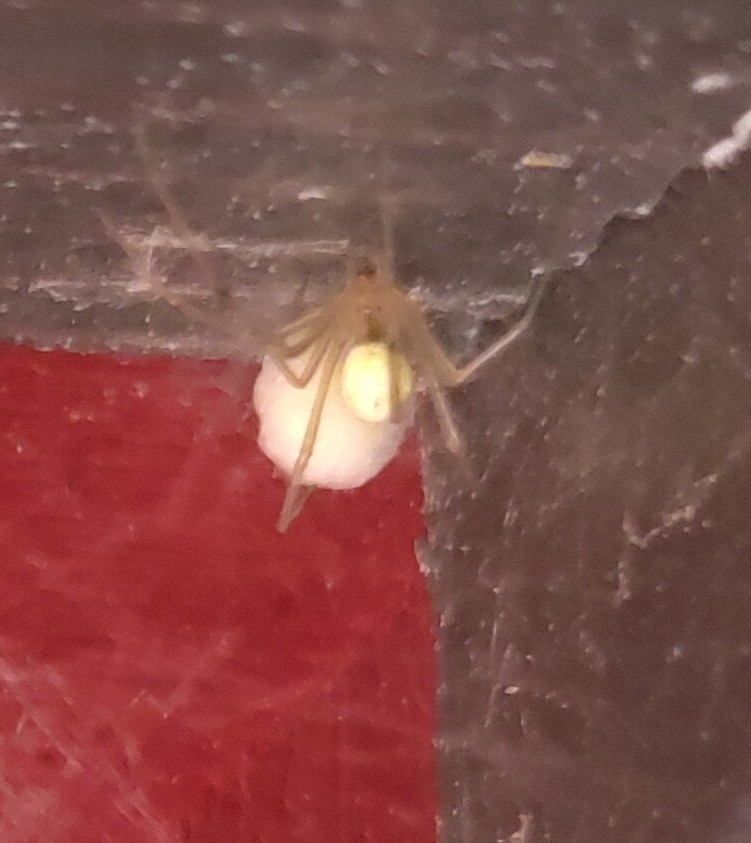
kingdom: Animalia
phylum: Arthropoda
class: Arachnida
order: Araneae
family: Theridiidae
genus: Enoplognatha
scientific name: Enoplognatha ovata
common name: Common candy-striped spider
